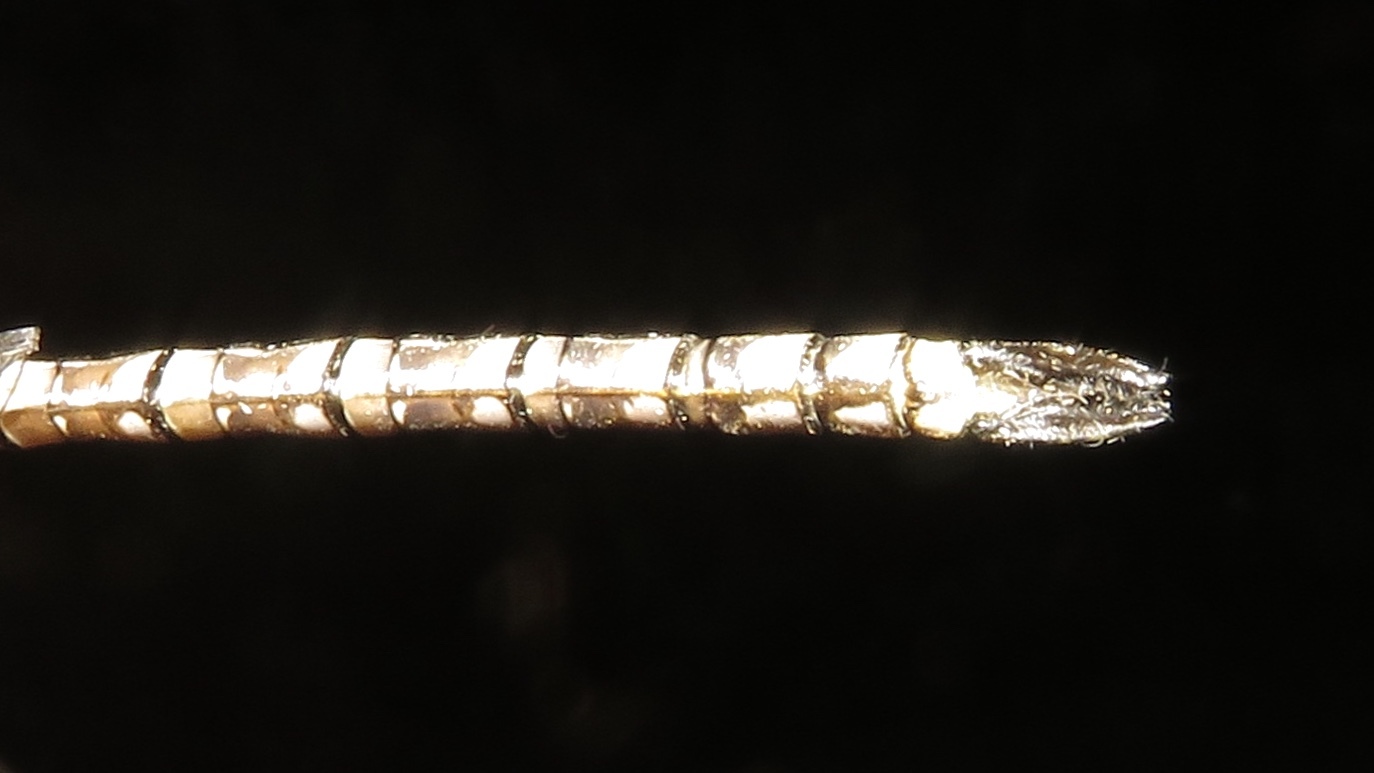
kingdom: Animalia
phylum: Arthropoda
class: Insecta
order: Odonata
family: Aeshnidae
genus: Aeshna
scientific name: Aeshna canadensis
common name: Canada darner
